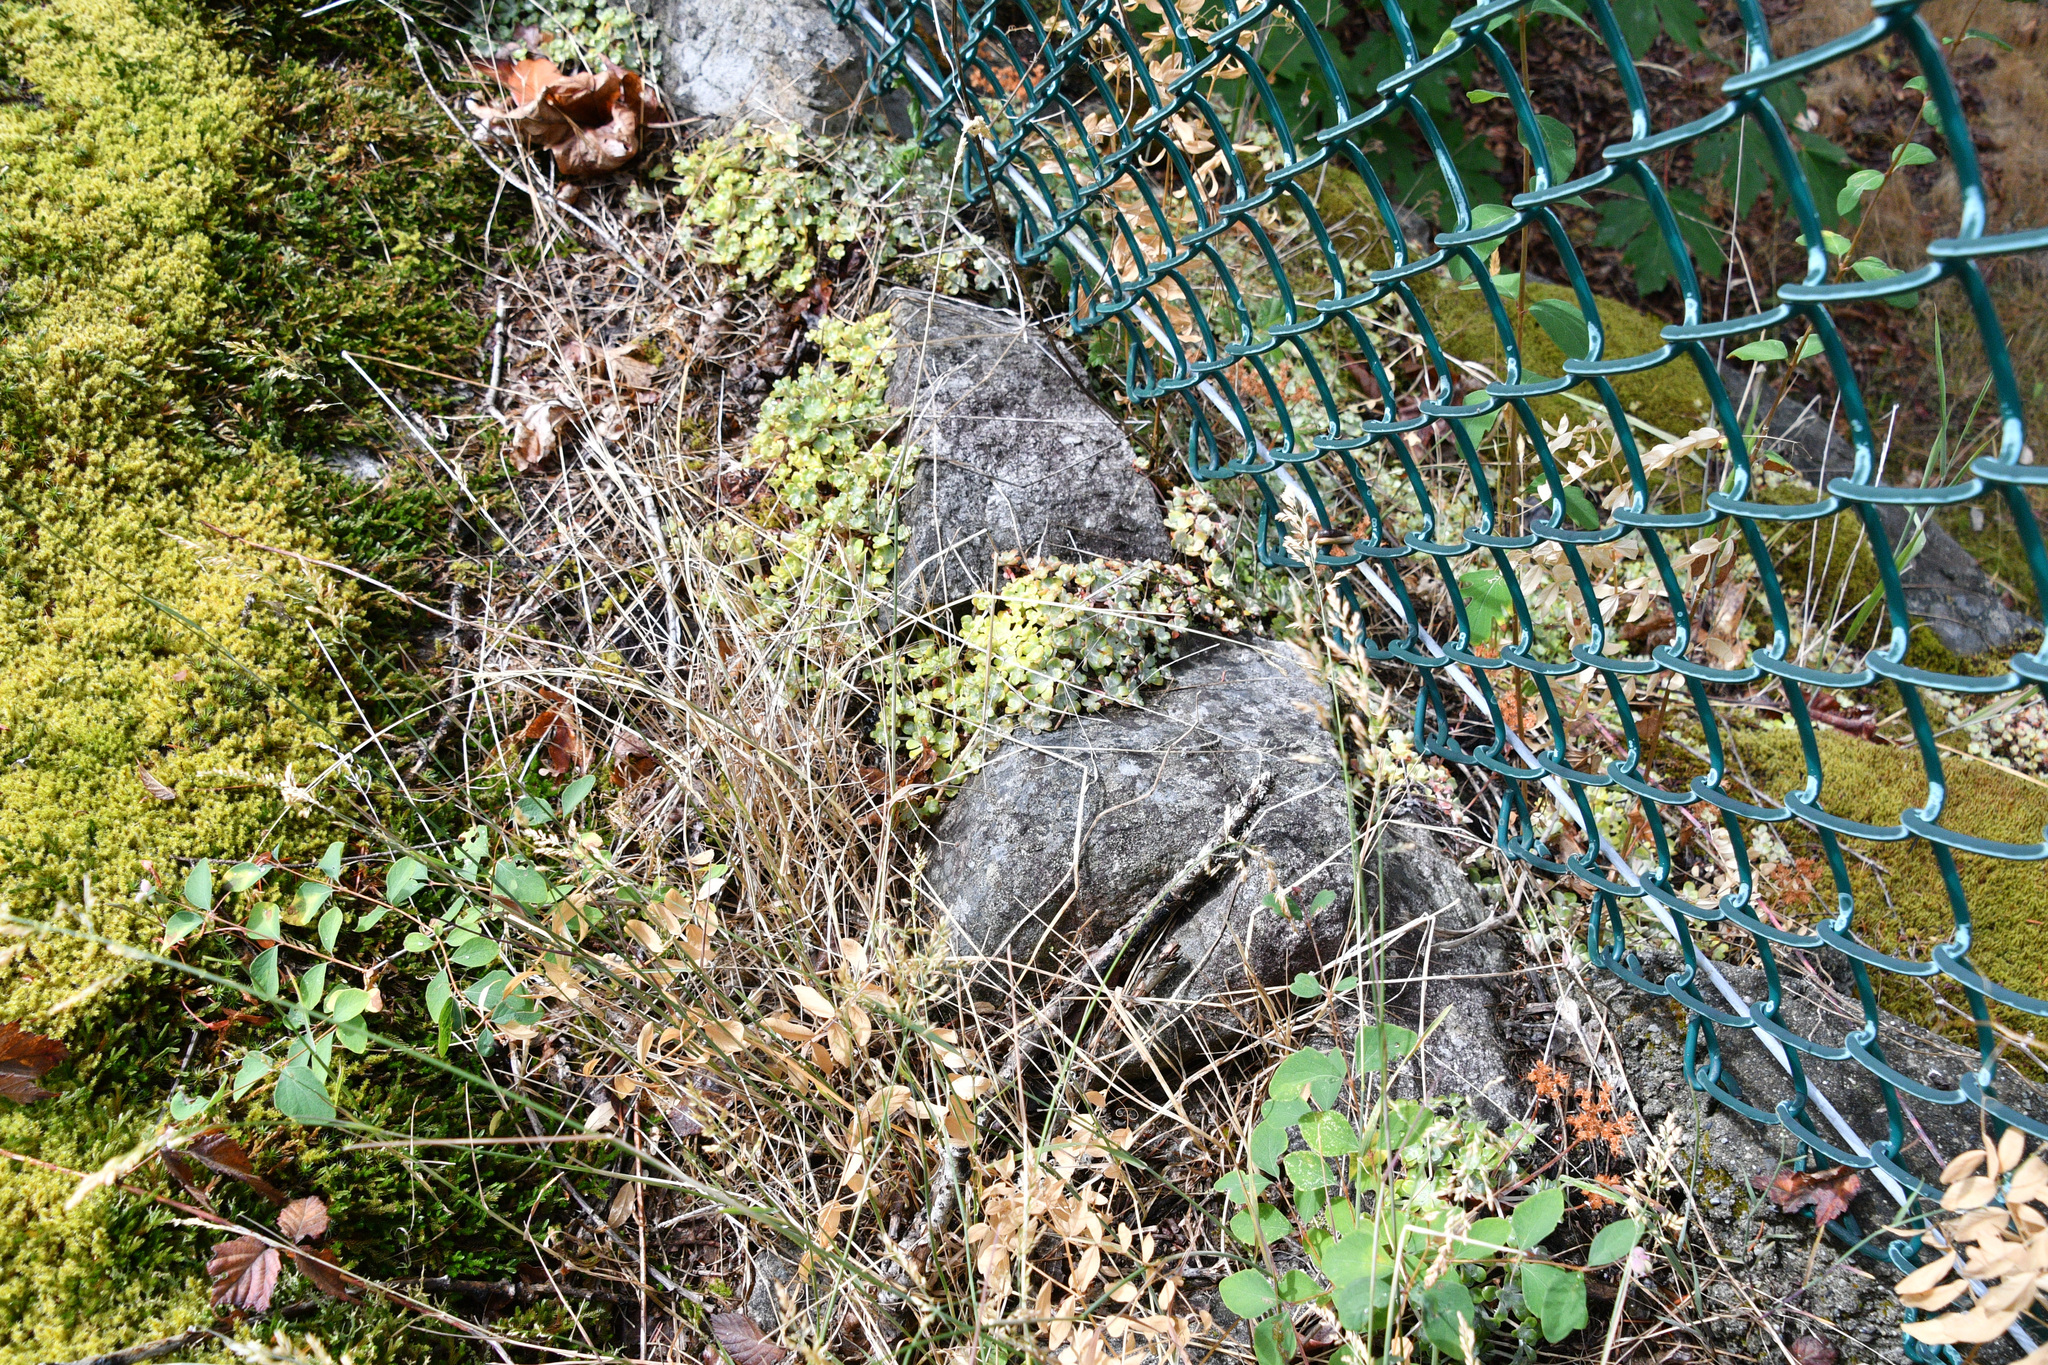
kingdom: Plantae
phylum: Tracheophyta
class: Magnoliopsida
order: Saxifragales
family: Crassulaceae
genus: Sedum
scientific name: Sedum spathulifolium
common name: Colorado stonecrop
